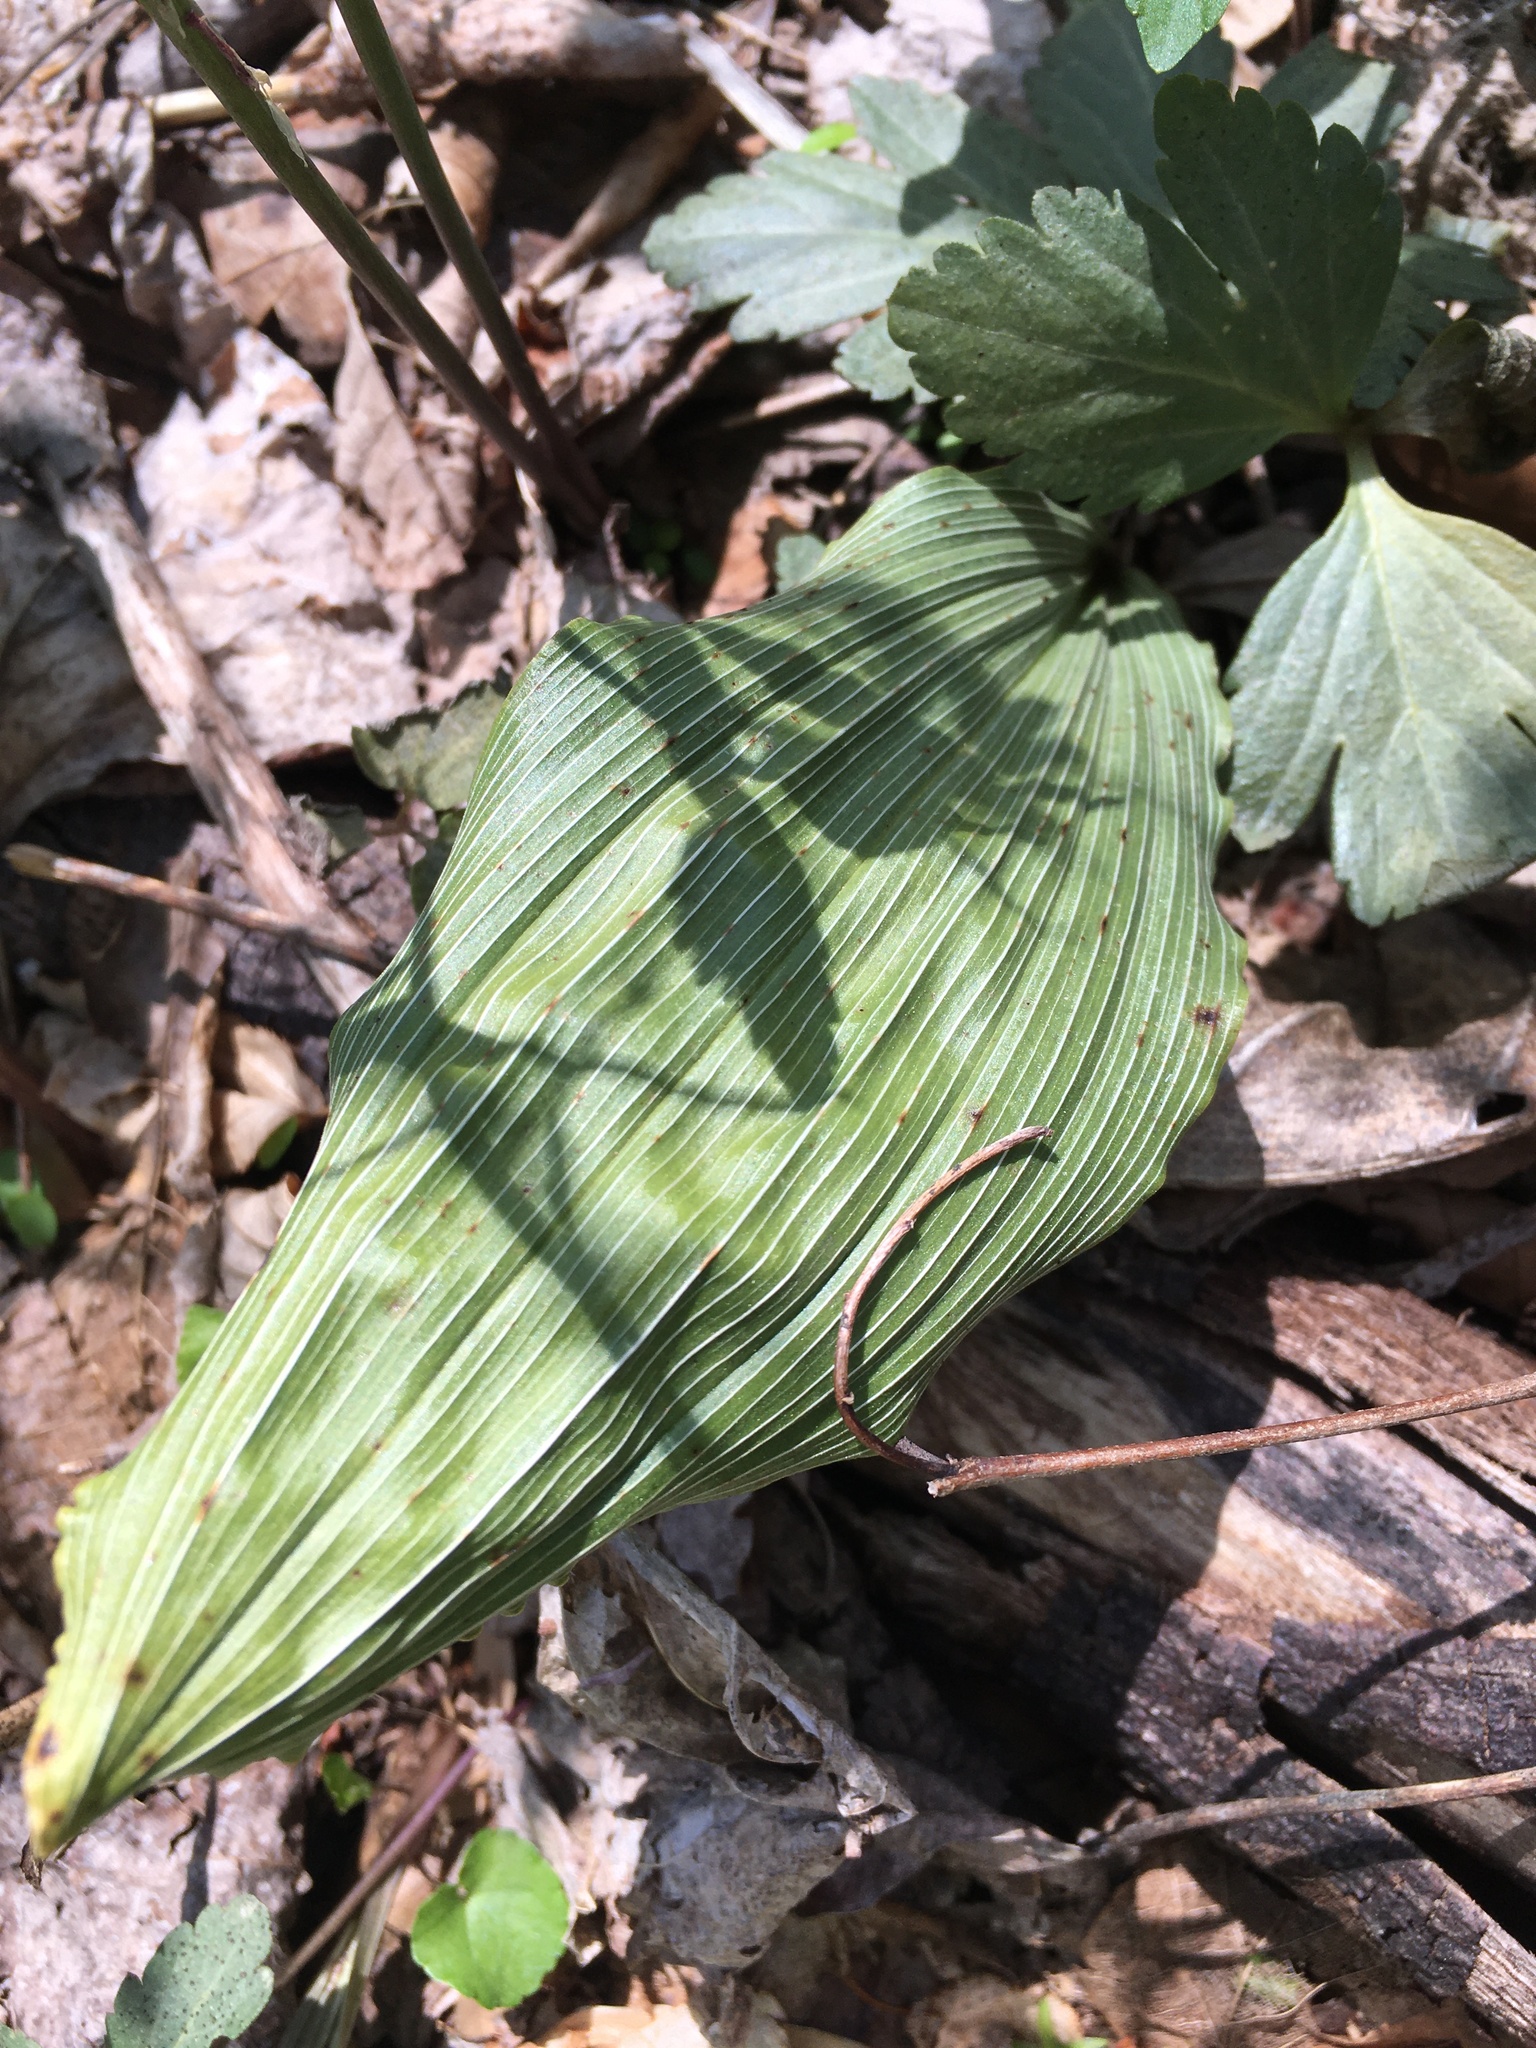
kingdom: Plantae
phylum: Tracheophyta
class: Liliopsida
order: Asparagales
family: Orchidaceae
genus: Aplectrum
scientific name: Aplectrum hyemale
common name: Adam-and-eve
